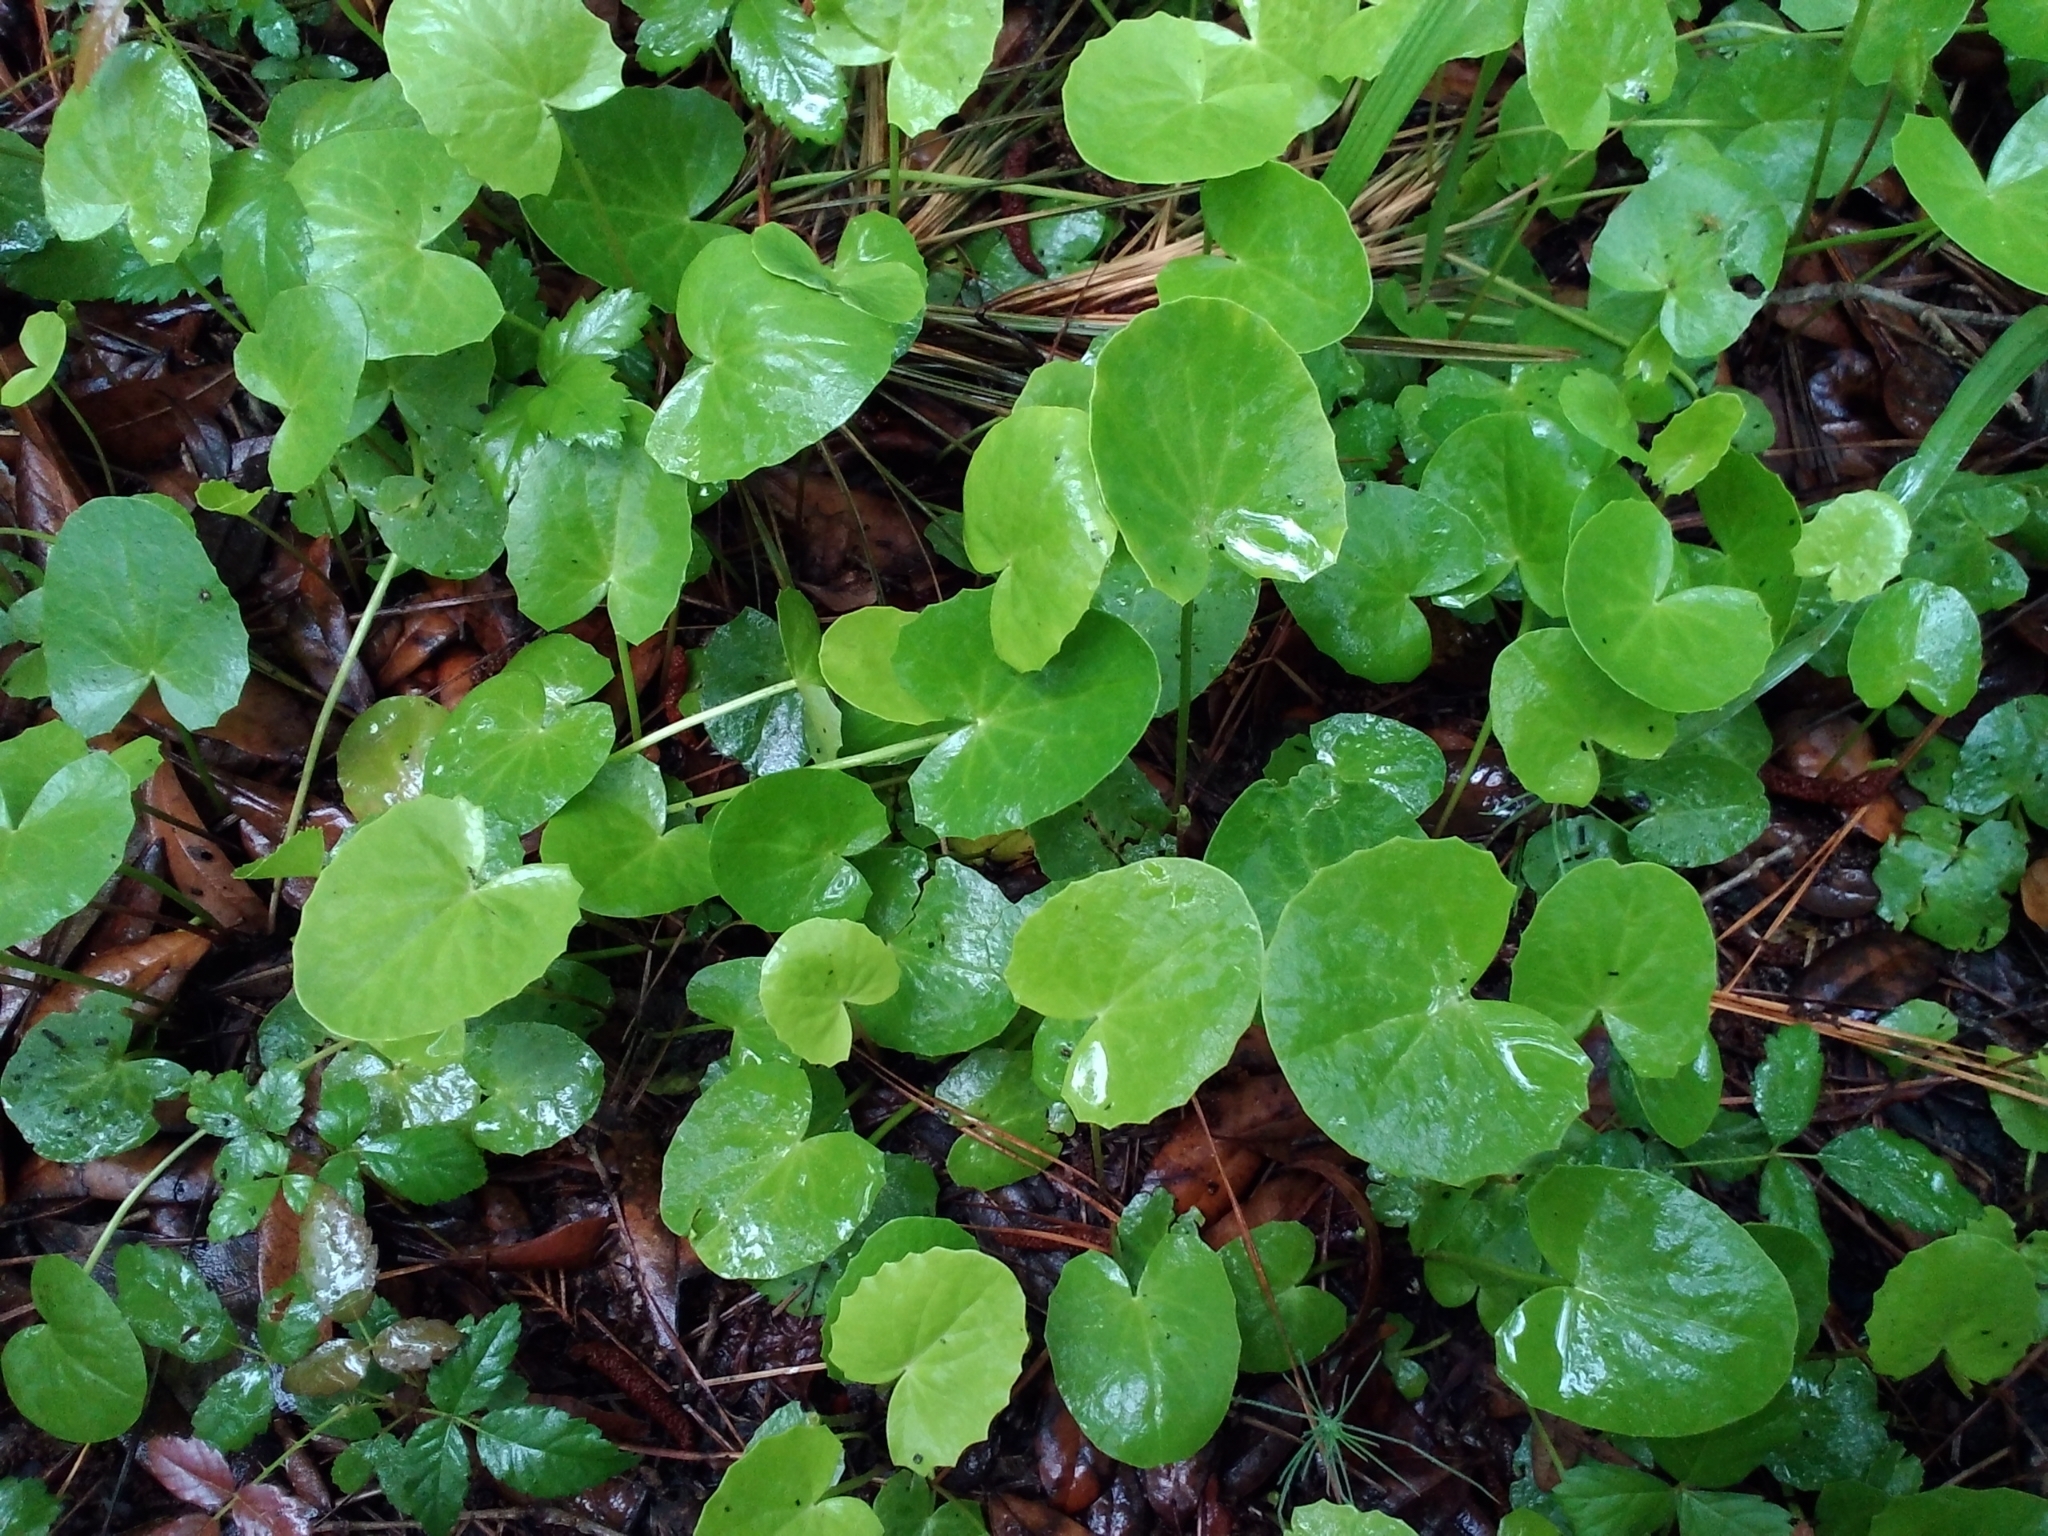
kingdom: Plantae
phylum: Tracheophyta
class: Magnoliopsida
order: Apiales
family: Apiaceae
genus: Centella
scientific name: Centella erecta
